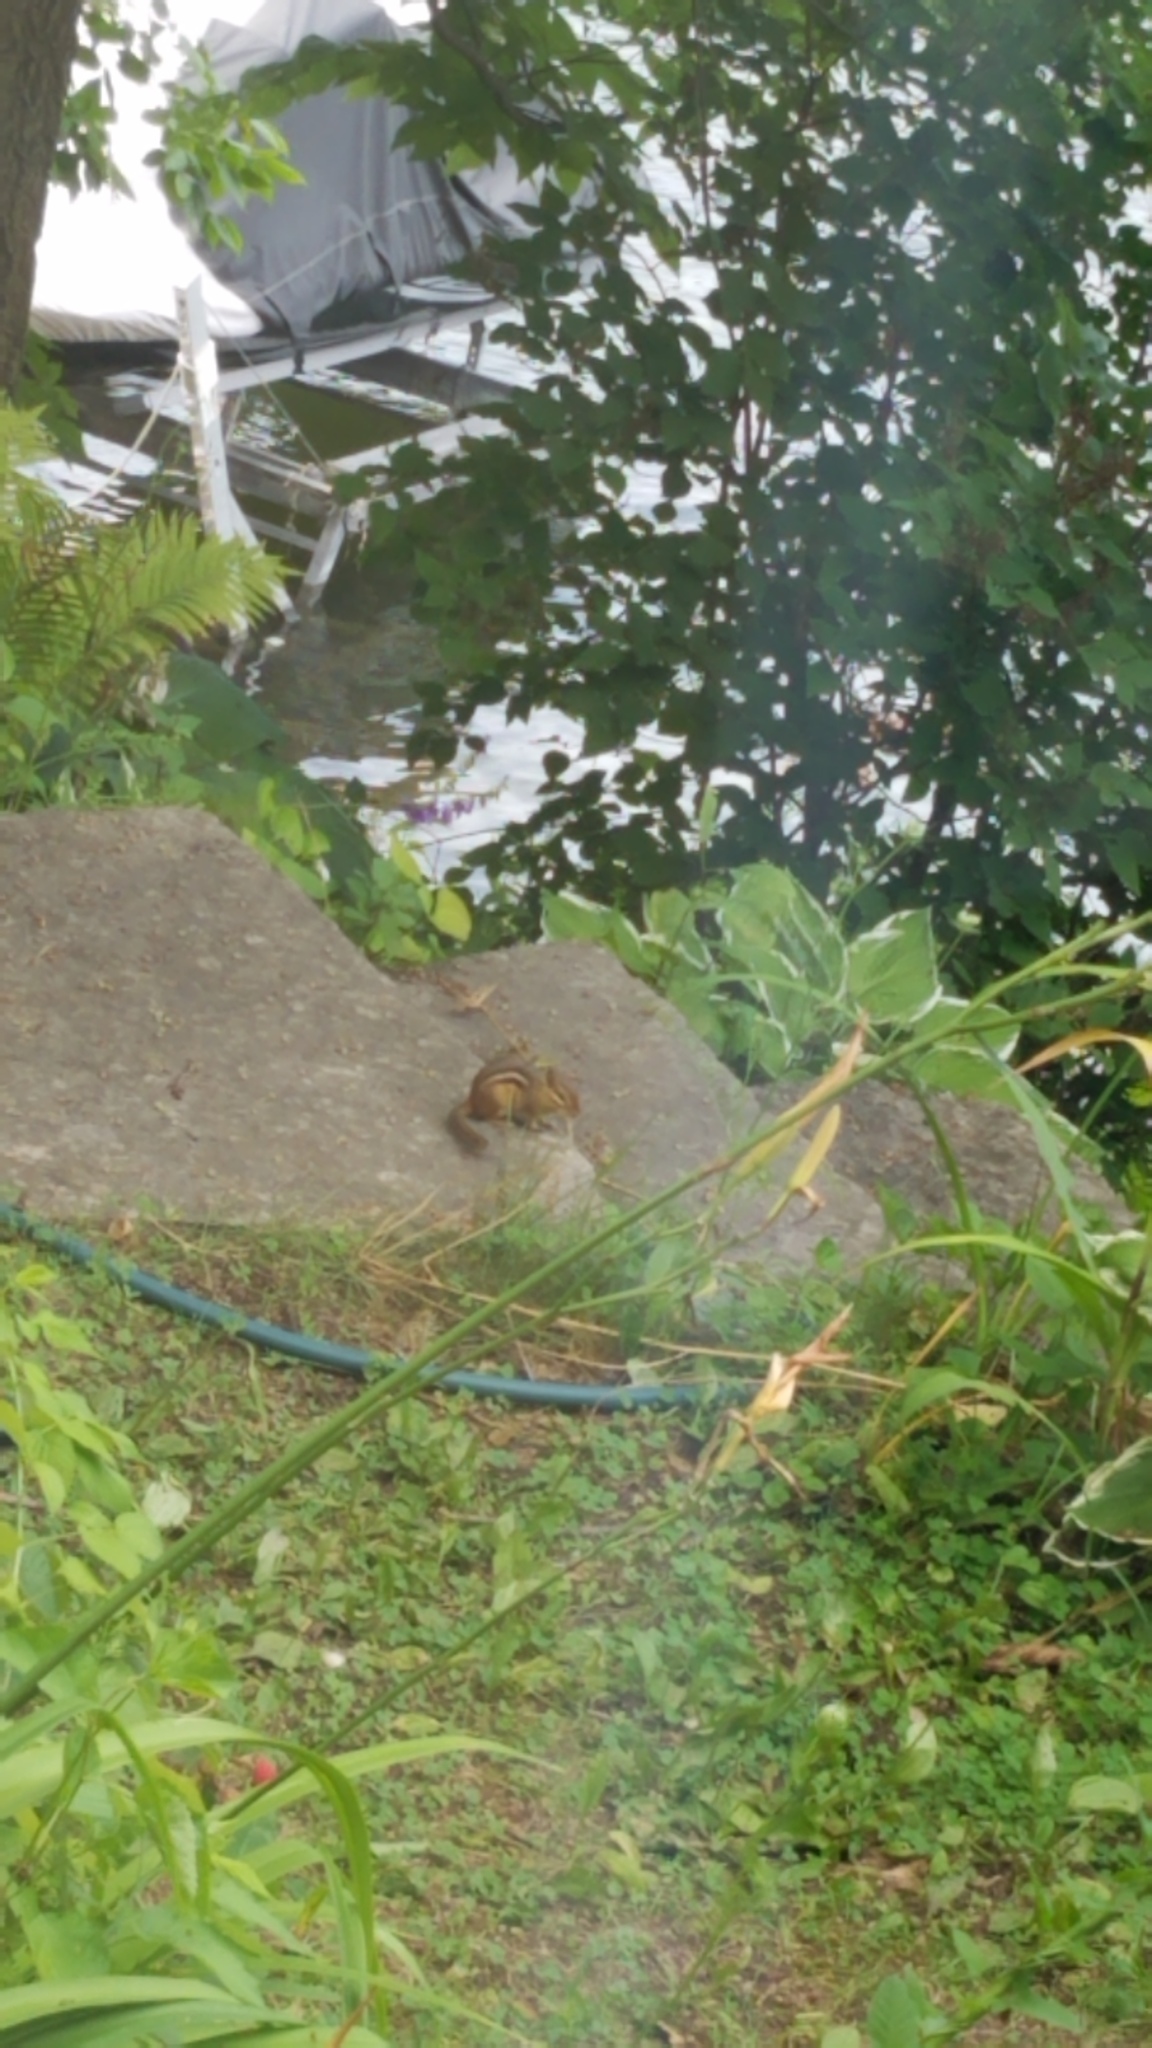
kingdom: Animalia
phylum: Chordata
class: Mammalia
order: Rodentia
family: Sciuridae
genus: Tamias
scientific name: Tamias striatus
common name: Eastern chipmunk
